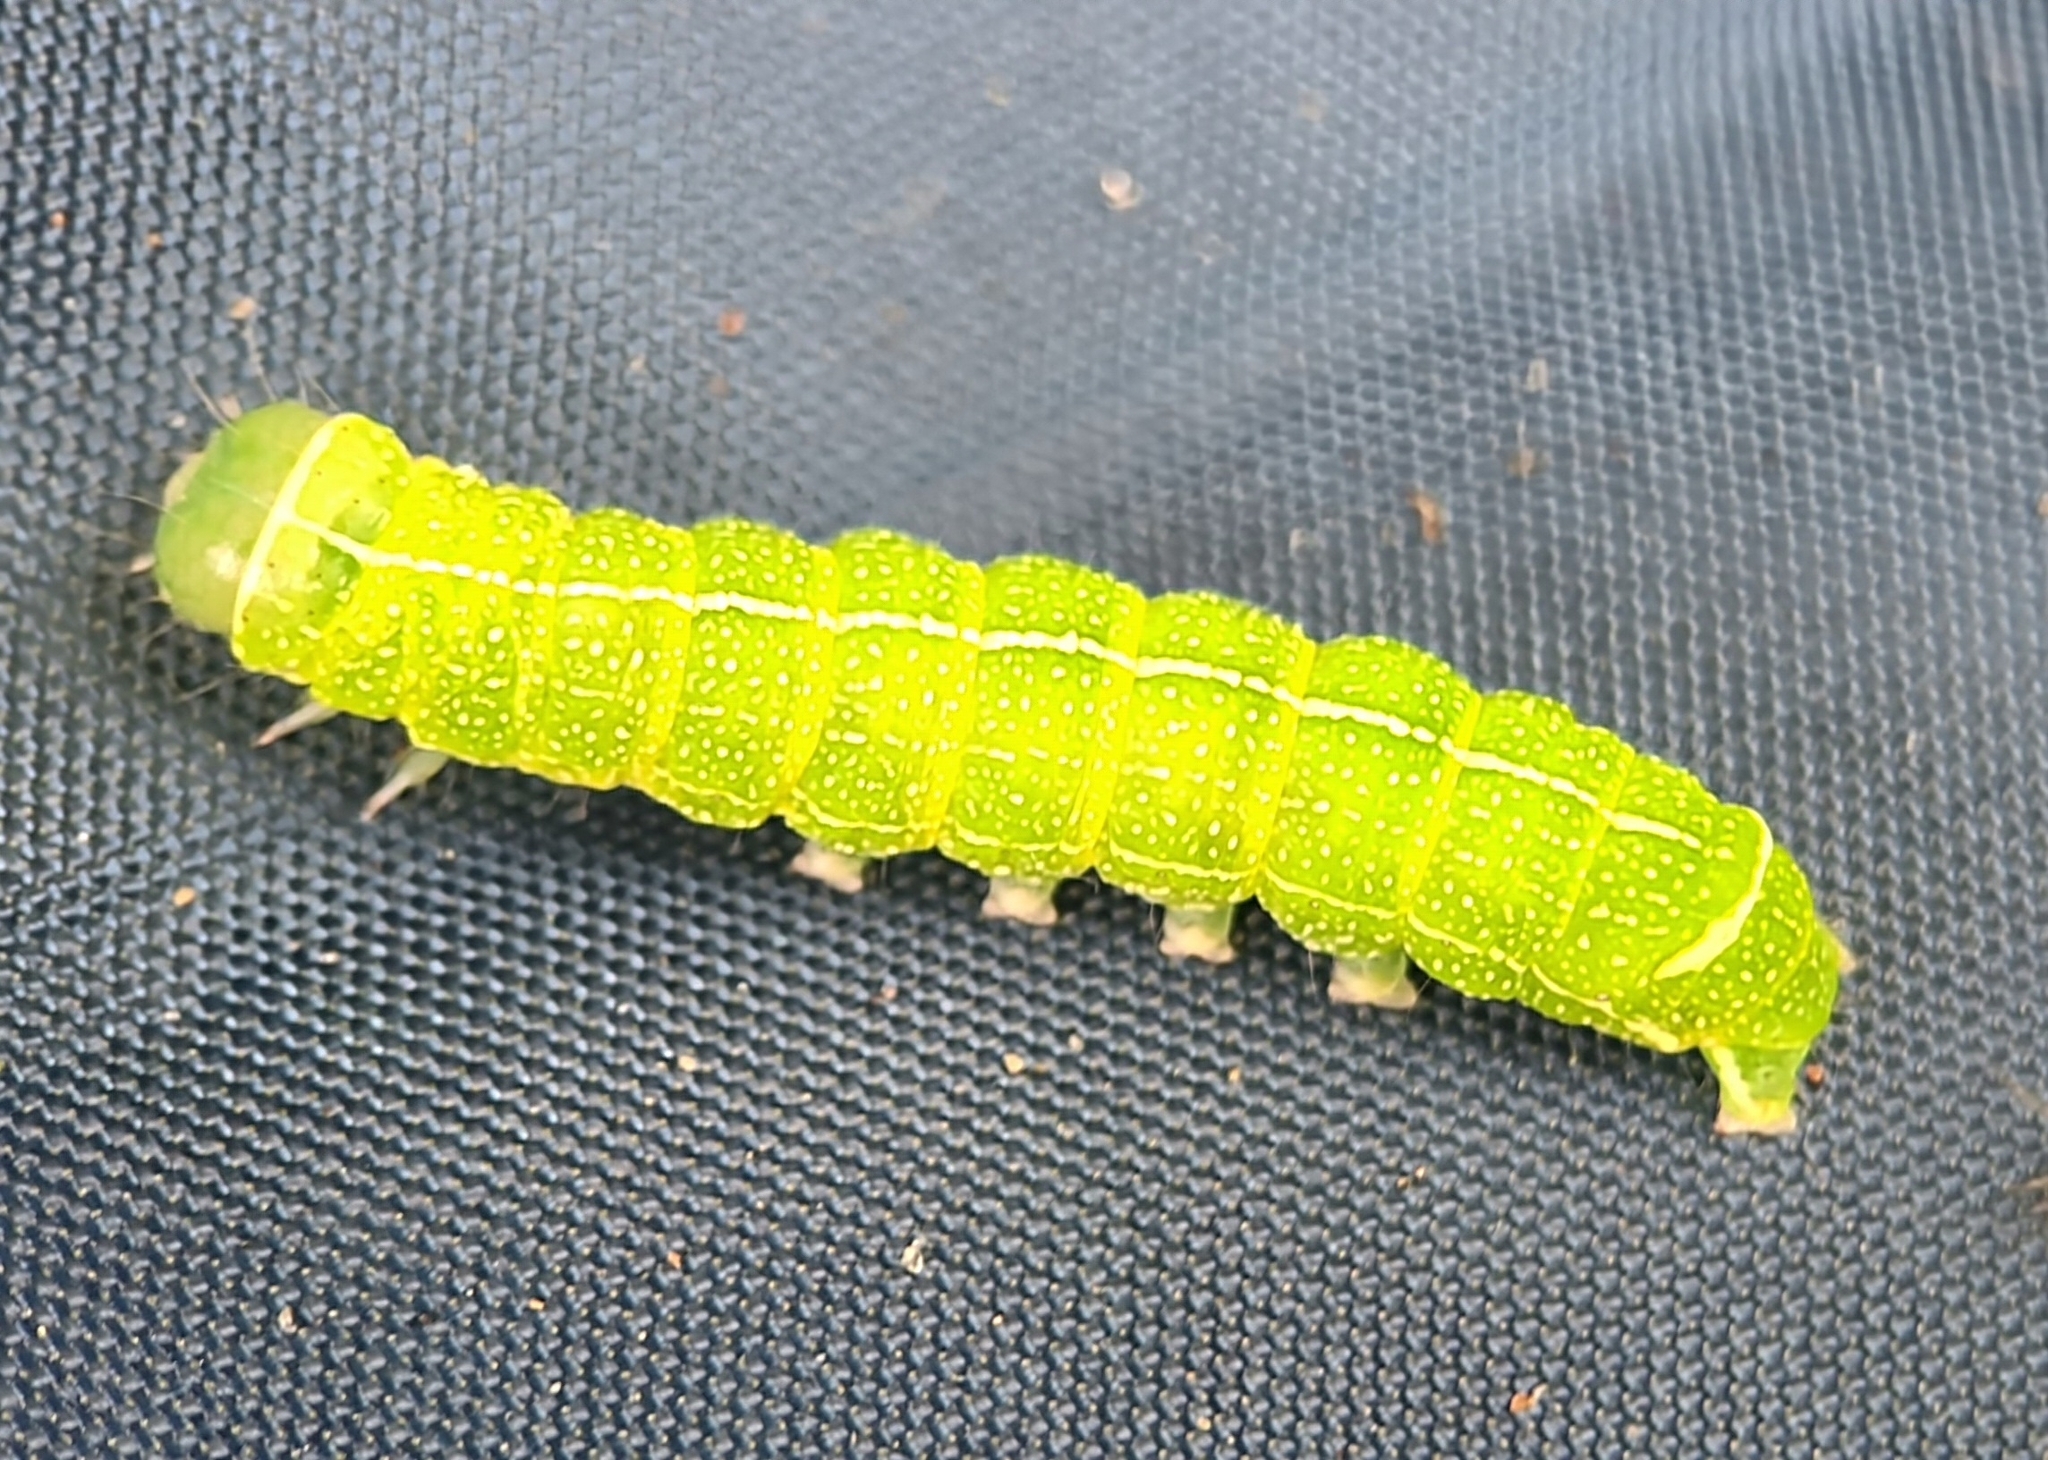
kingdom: Animalia
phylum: Arthropoda
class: Insecta
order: Lepidoptera
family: Noctuidae
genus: Orthosia
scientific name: Orthosia cerasi
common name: Common quaker
